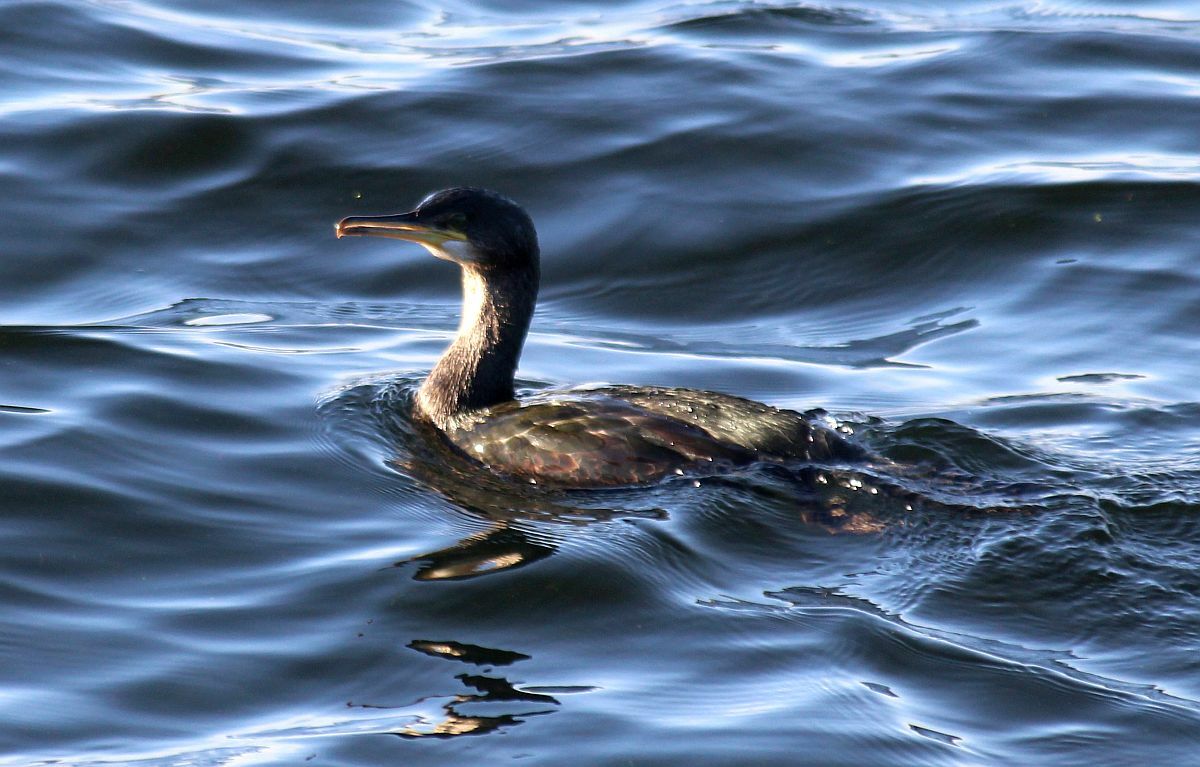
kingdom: Animalia
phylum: Chordata
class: Aves
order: Suliformes
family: Phalacrocoracidae
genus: Phalacrocorax
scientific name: Phalacrocorax aristotelis
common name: European shag
